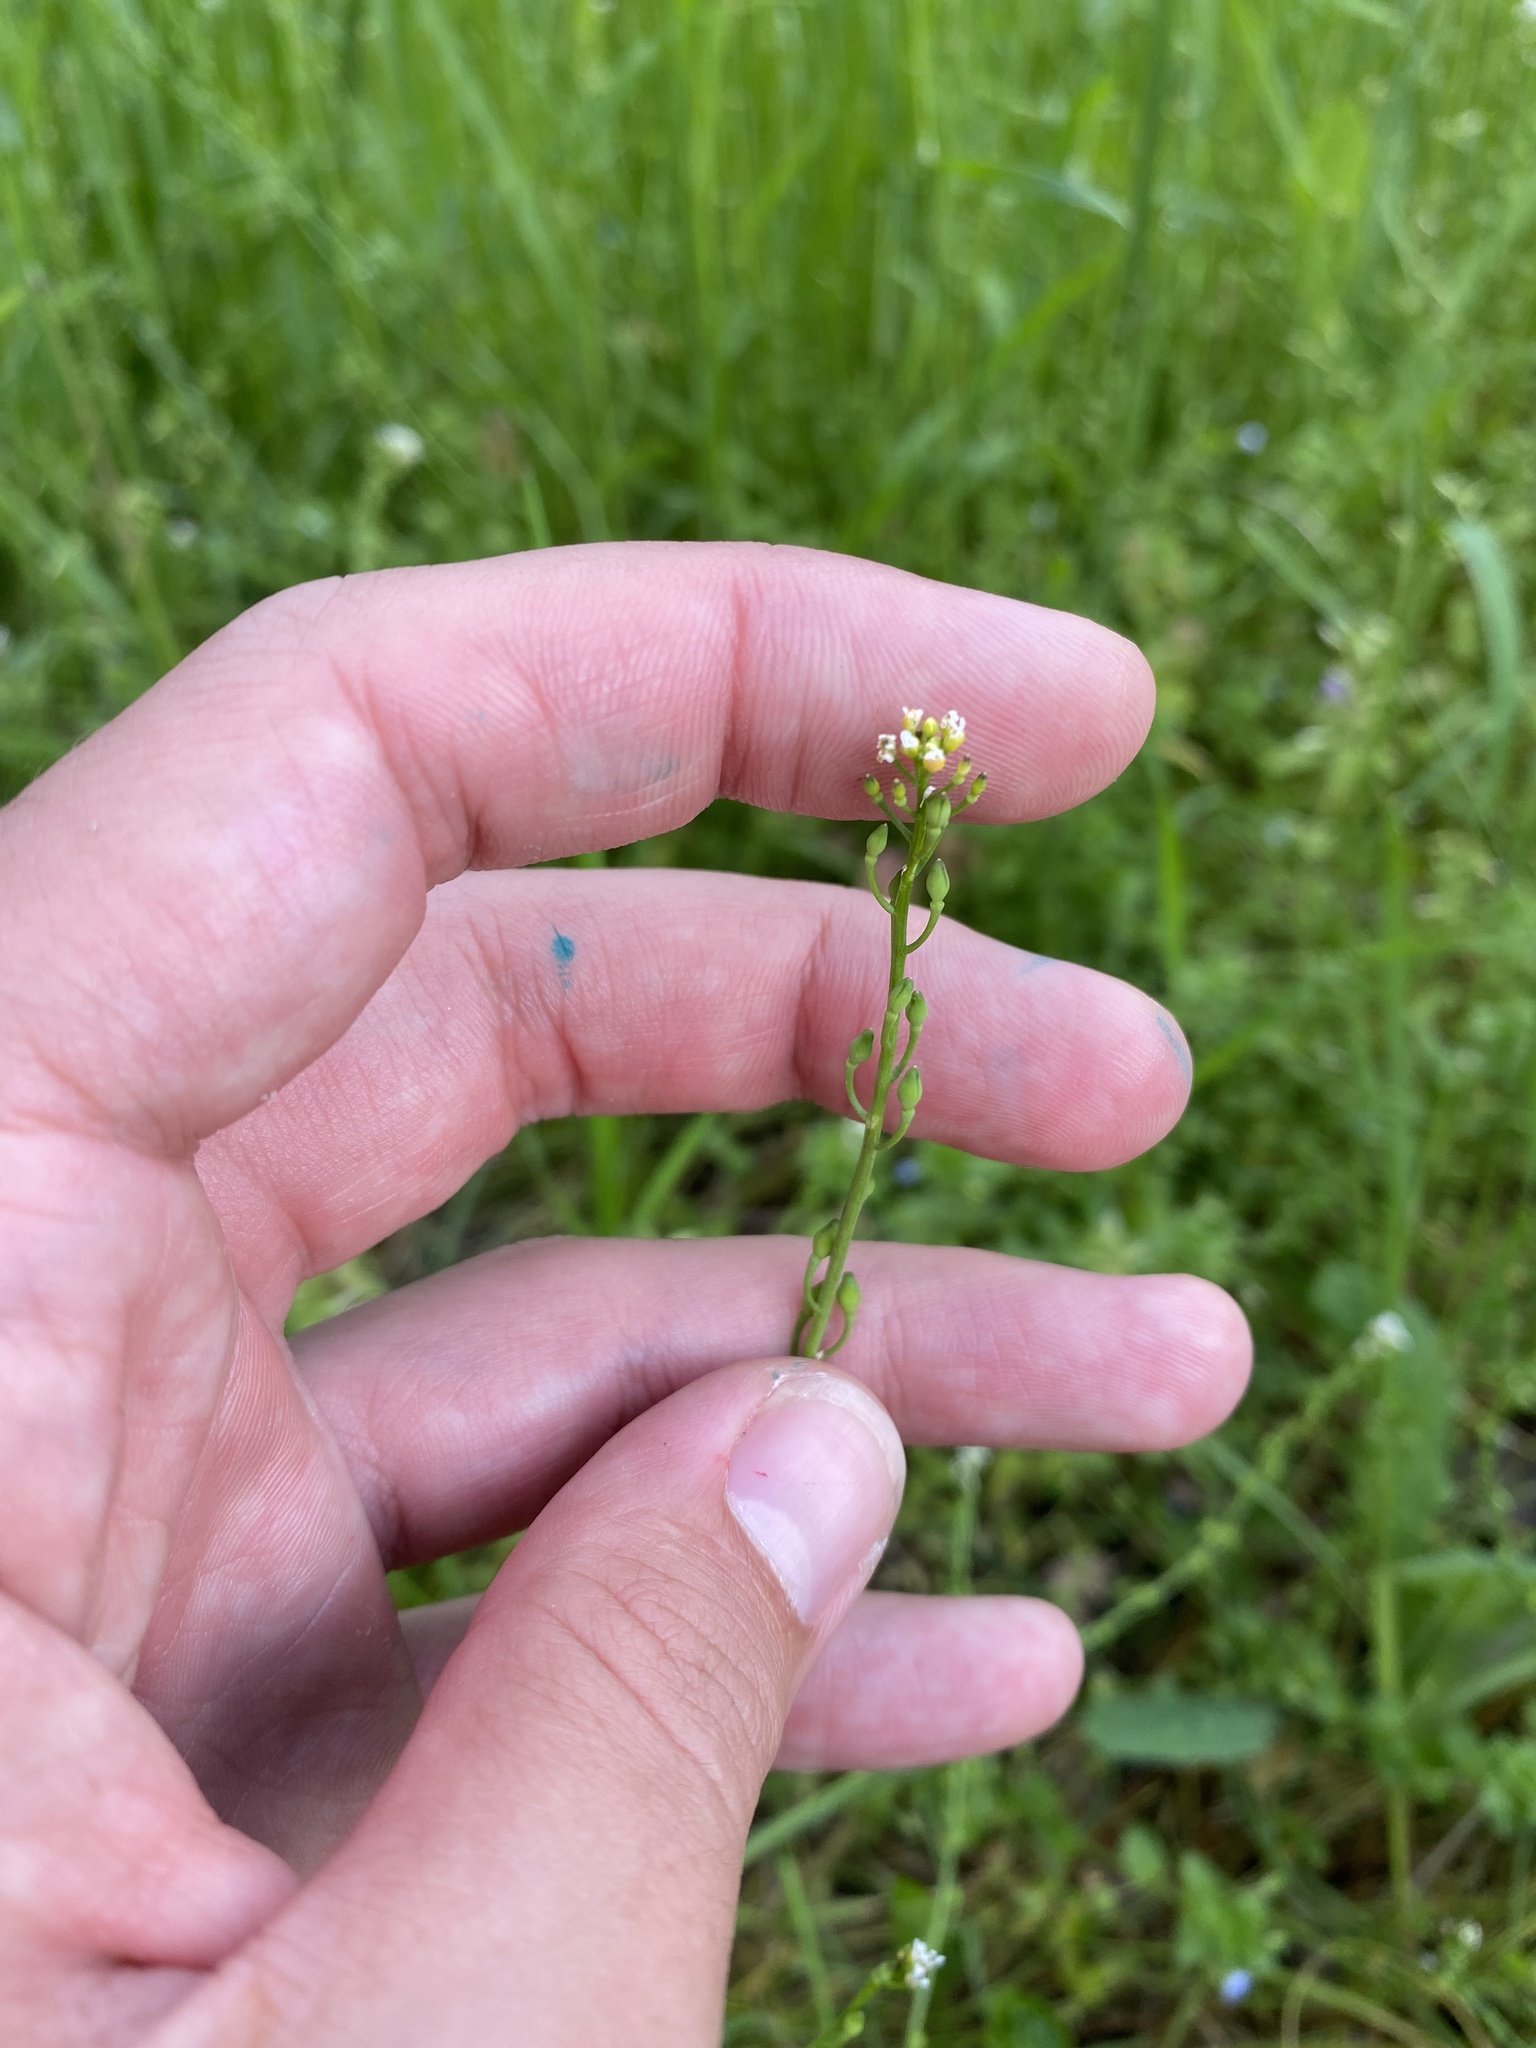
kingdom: Plantae
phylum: Tracheophyta
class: Magnoliopsida
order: Brassicales
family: Brassicaceae
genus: Calepina
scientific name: Calepina irregularis
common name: White ballmustard
